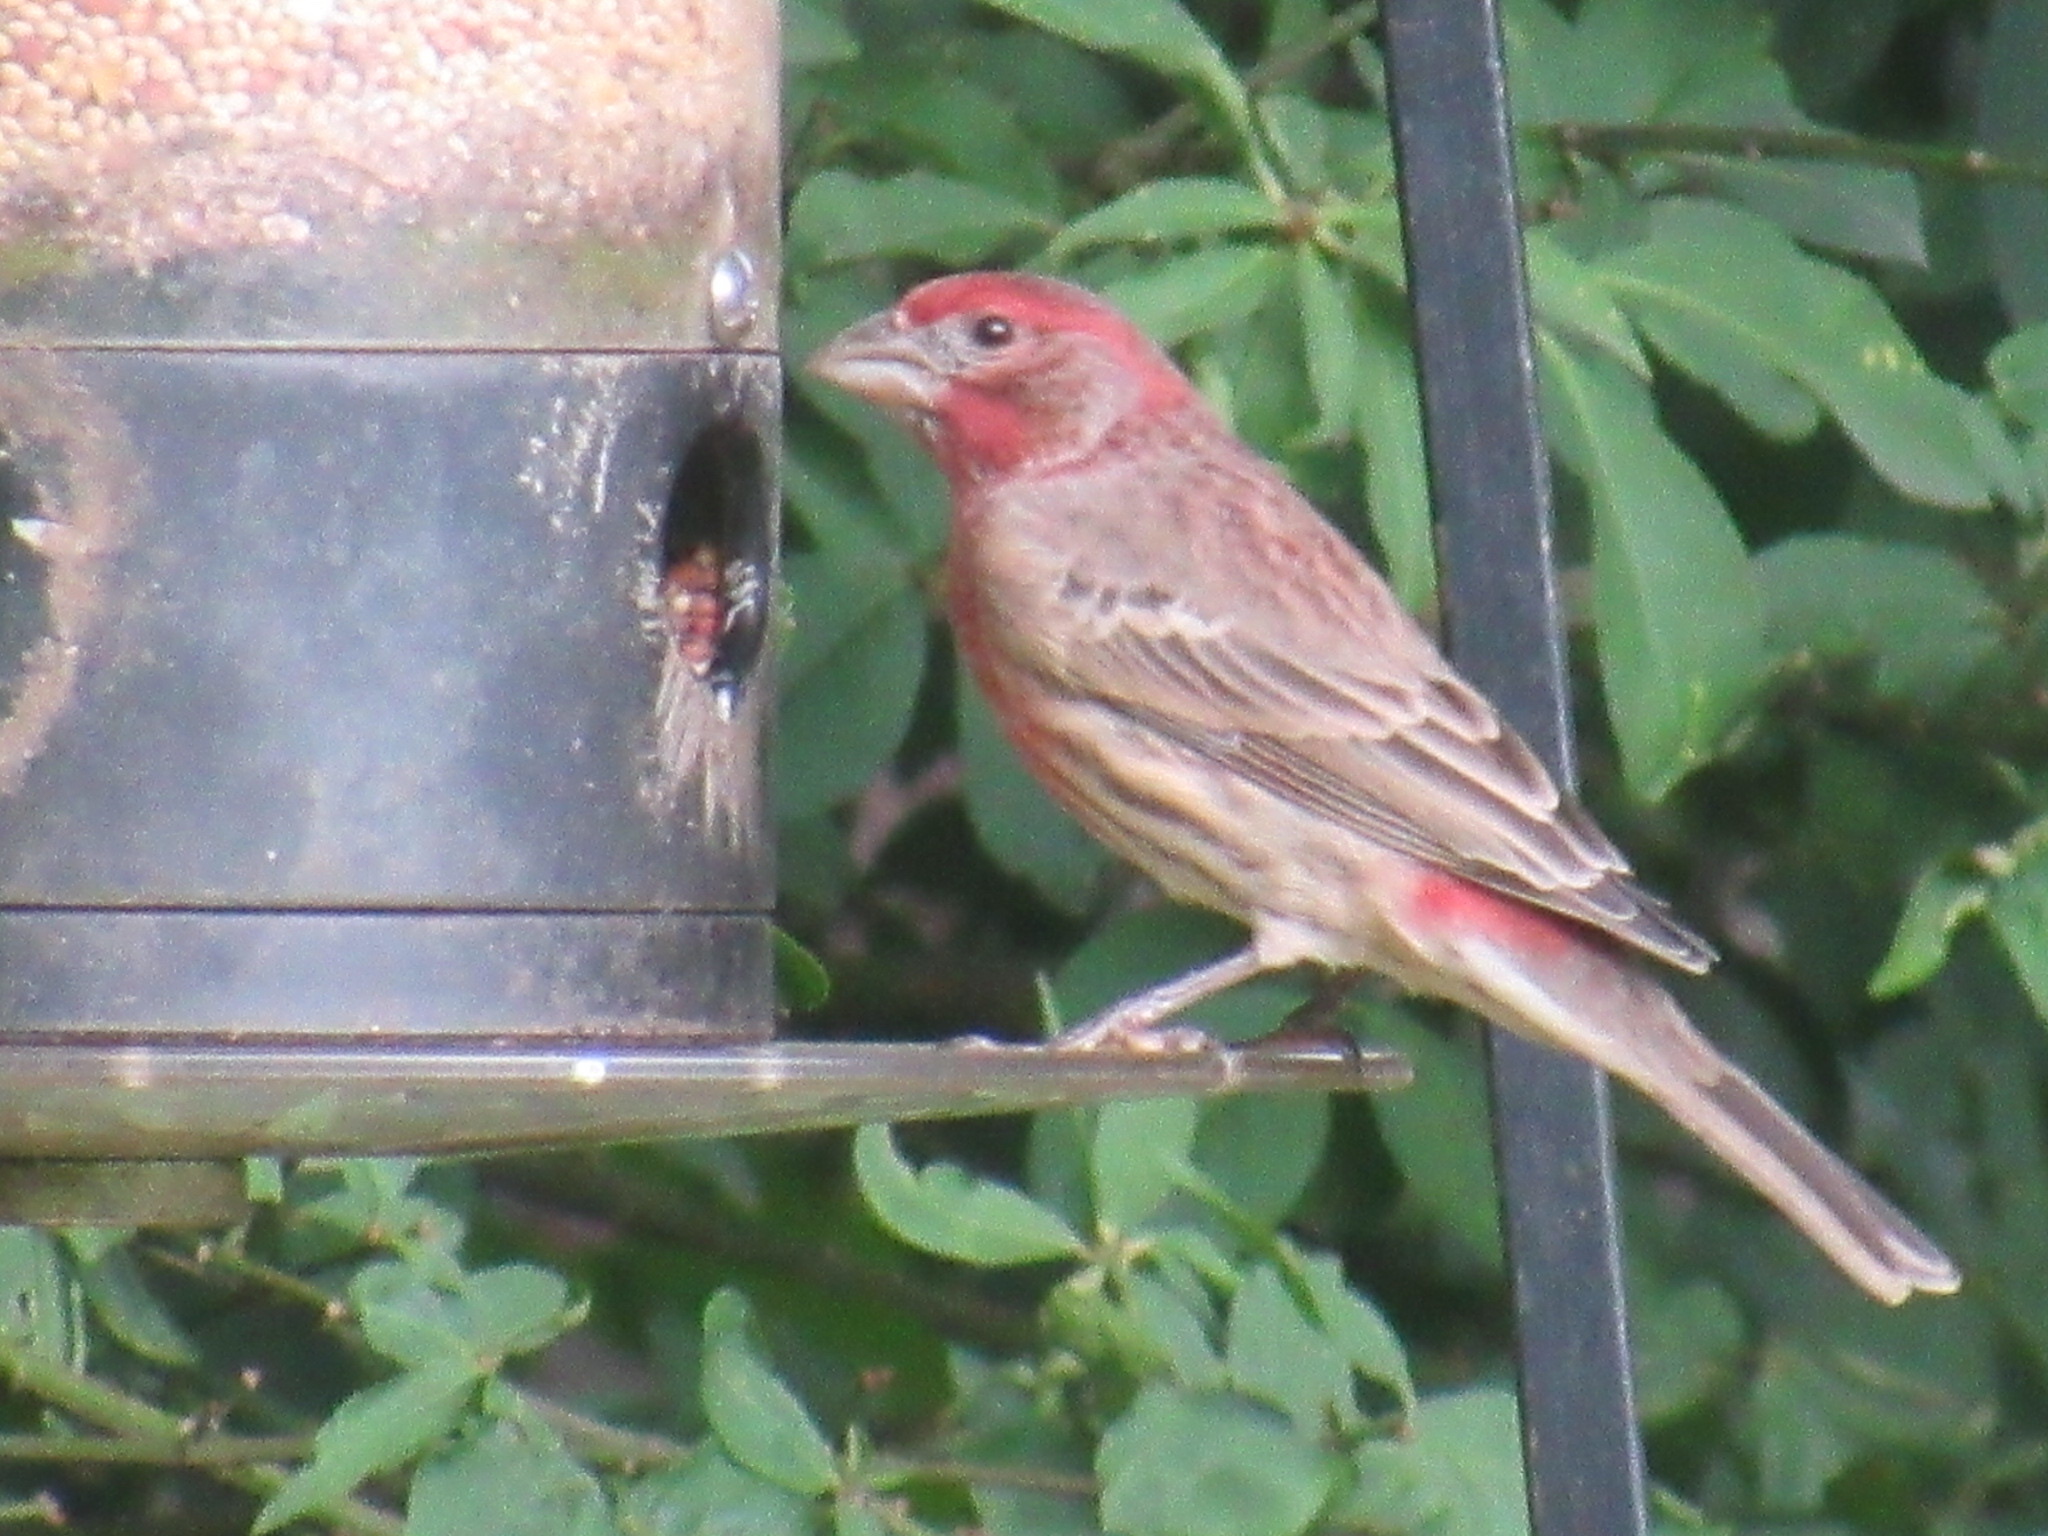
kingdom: Animalia
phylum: Chordata
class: Aves
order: Passeriformes
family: Fringillidae
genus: Haemorhous
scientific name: Haemorhous mexicanus
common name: House finch
